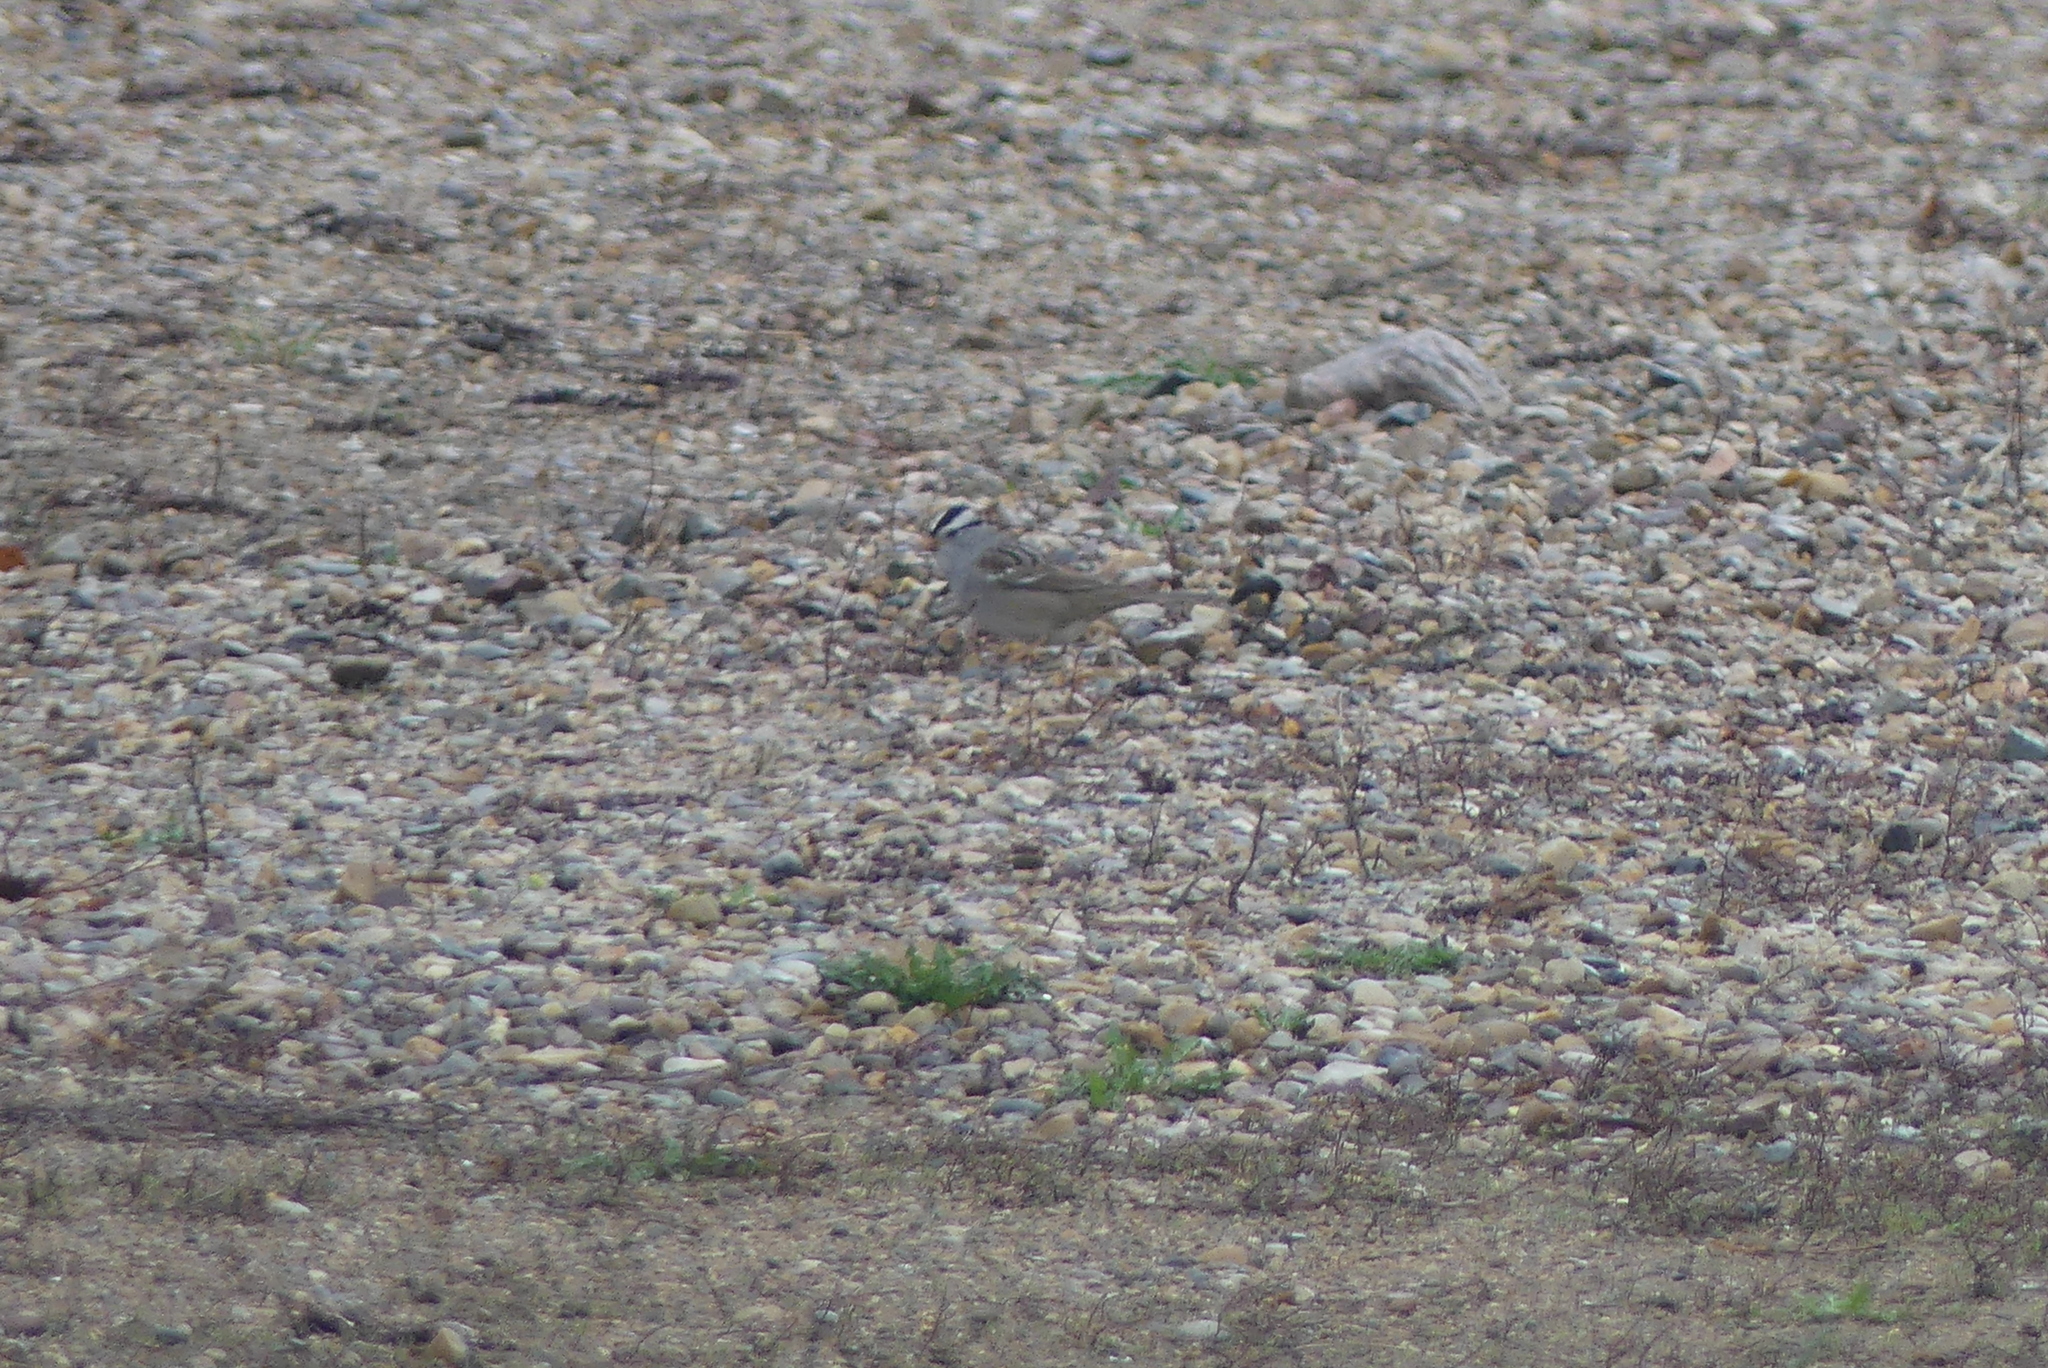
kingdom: Animalia
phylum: Chordata
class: Aves
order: Passeriformes
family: Passerellidae
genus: Zonotrichia
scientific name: Zonotrichia leucophrys
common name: White-crowned sparrow
